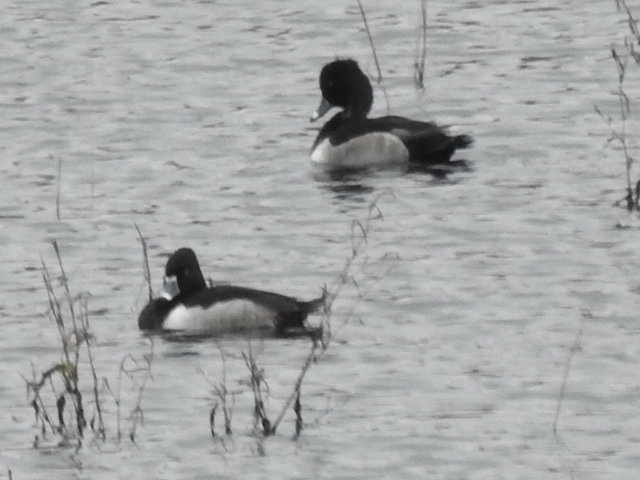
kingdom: Animalia
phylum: Chordata
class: Aves
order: Anseriformes
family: Anatidae
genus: Aythya
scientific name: Aythya collaris
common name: Ring-necked duck
